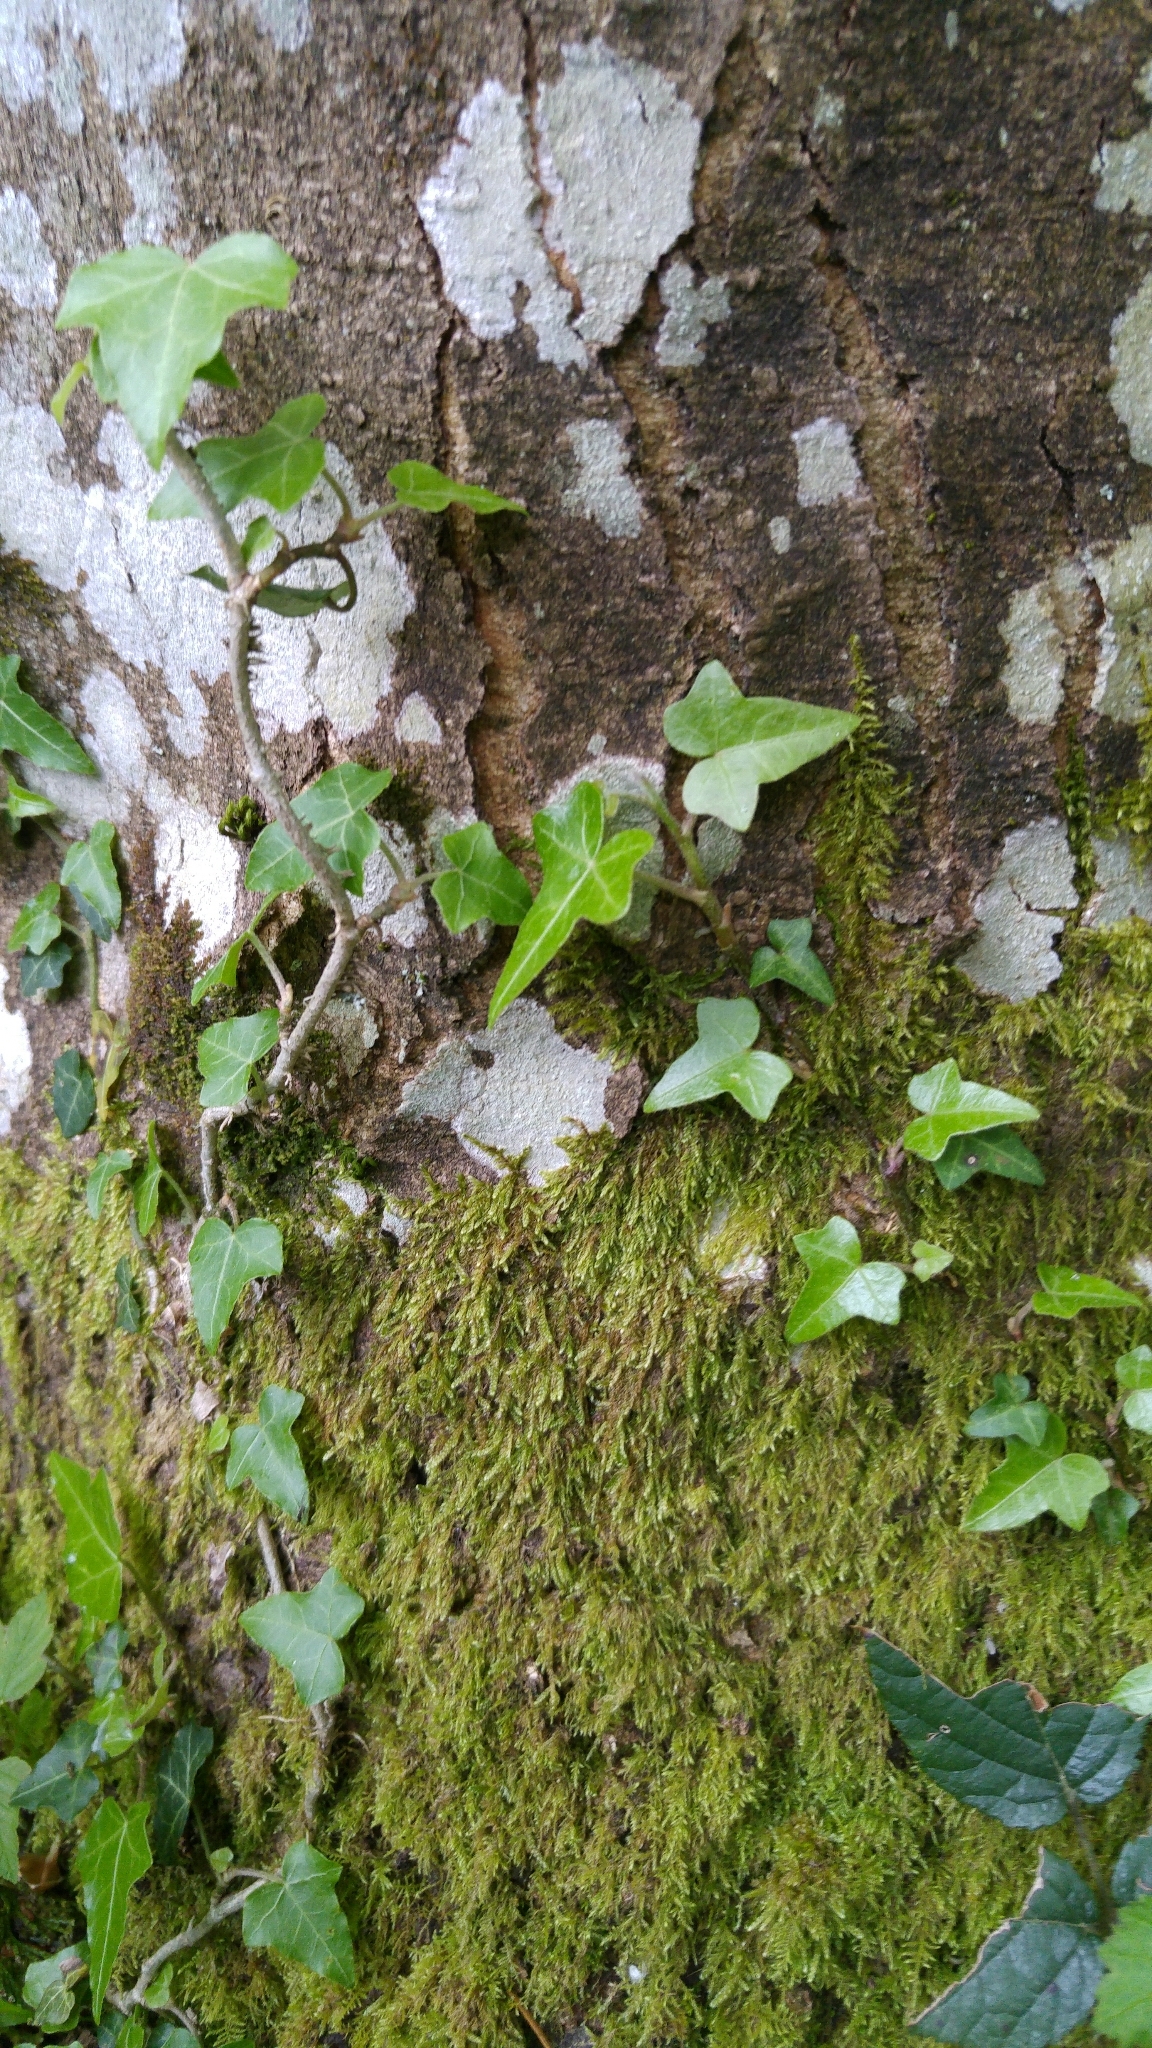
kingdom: Plantae
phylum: Tracheophyta
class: Magnoliopsida
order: Apiales
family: Araliaceae
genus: Hedera
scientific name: Hedera helix
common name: Ivy
